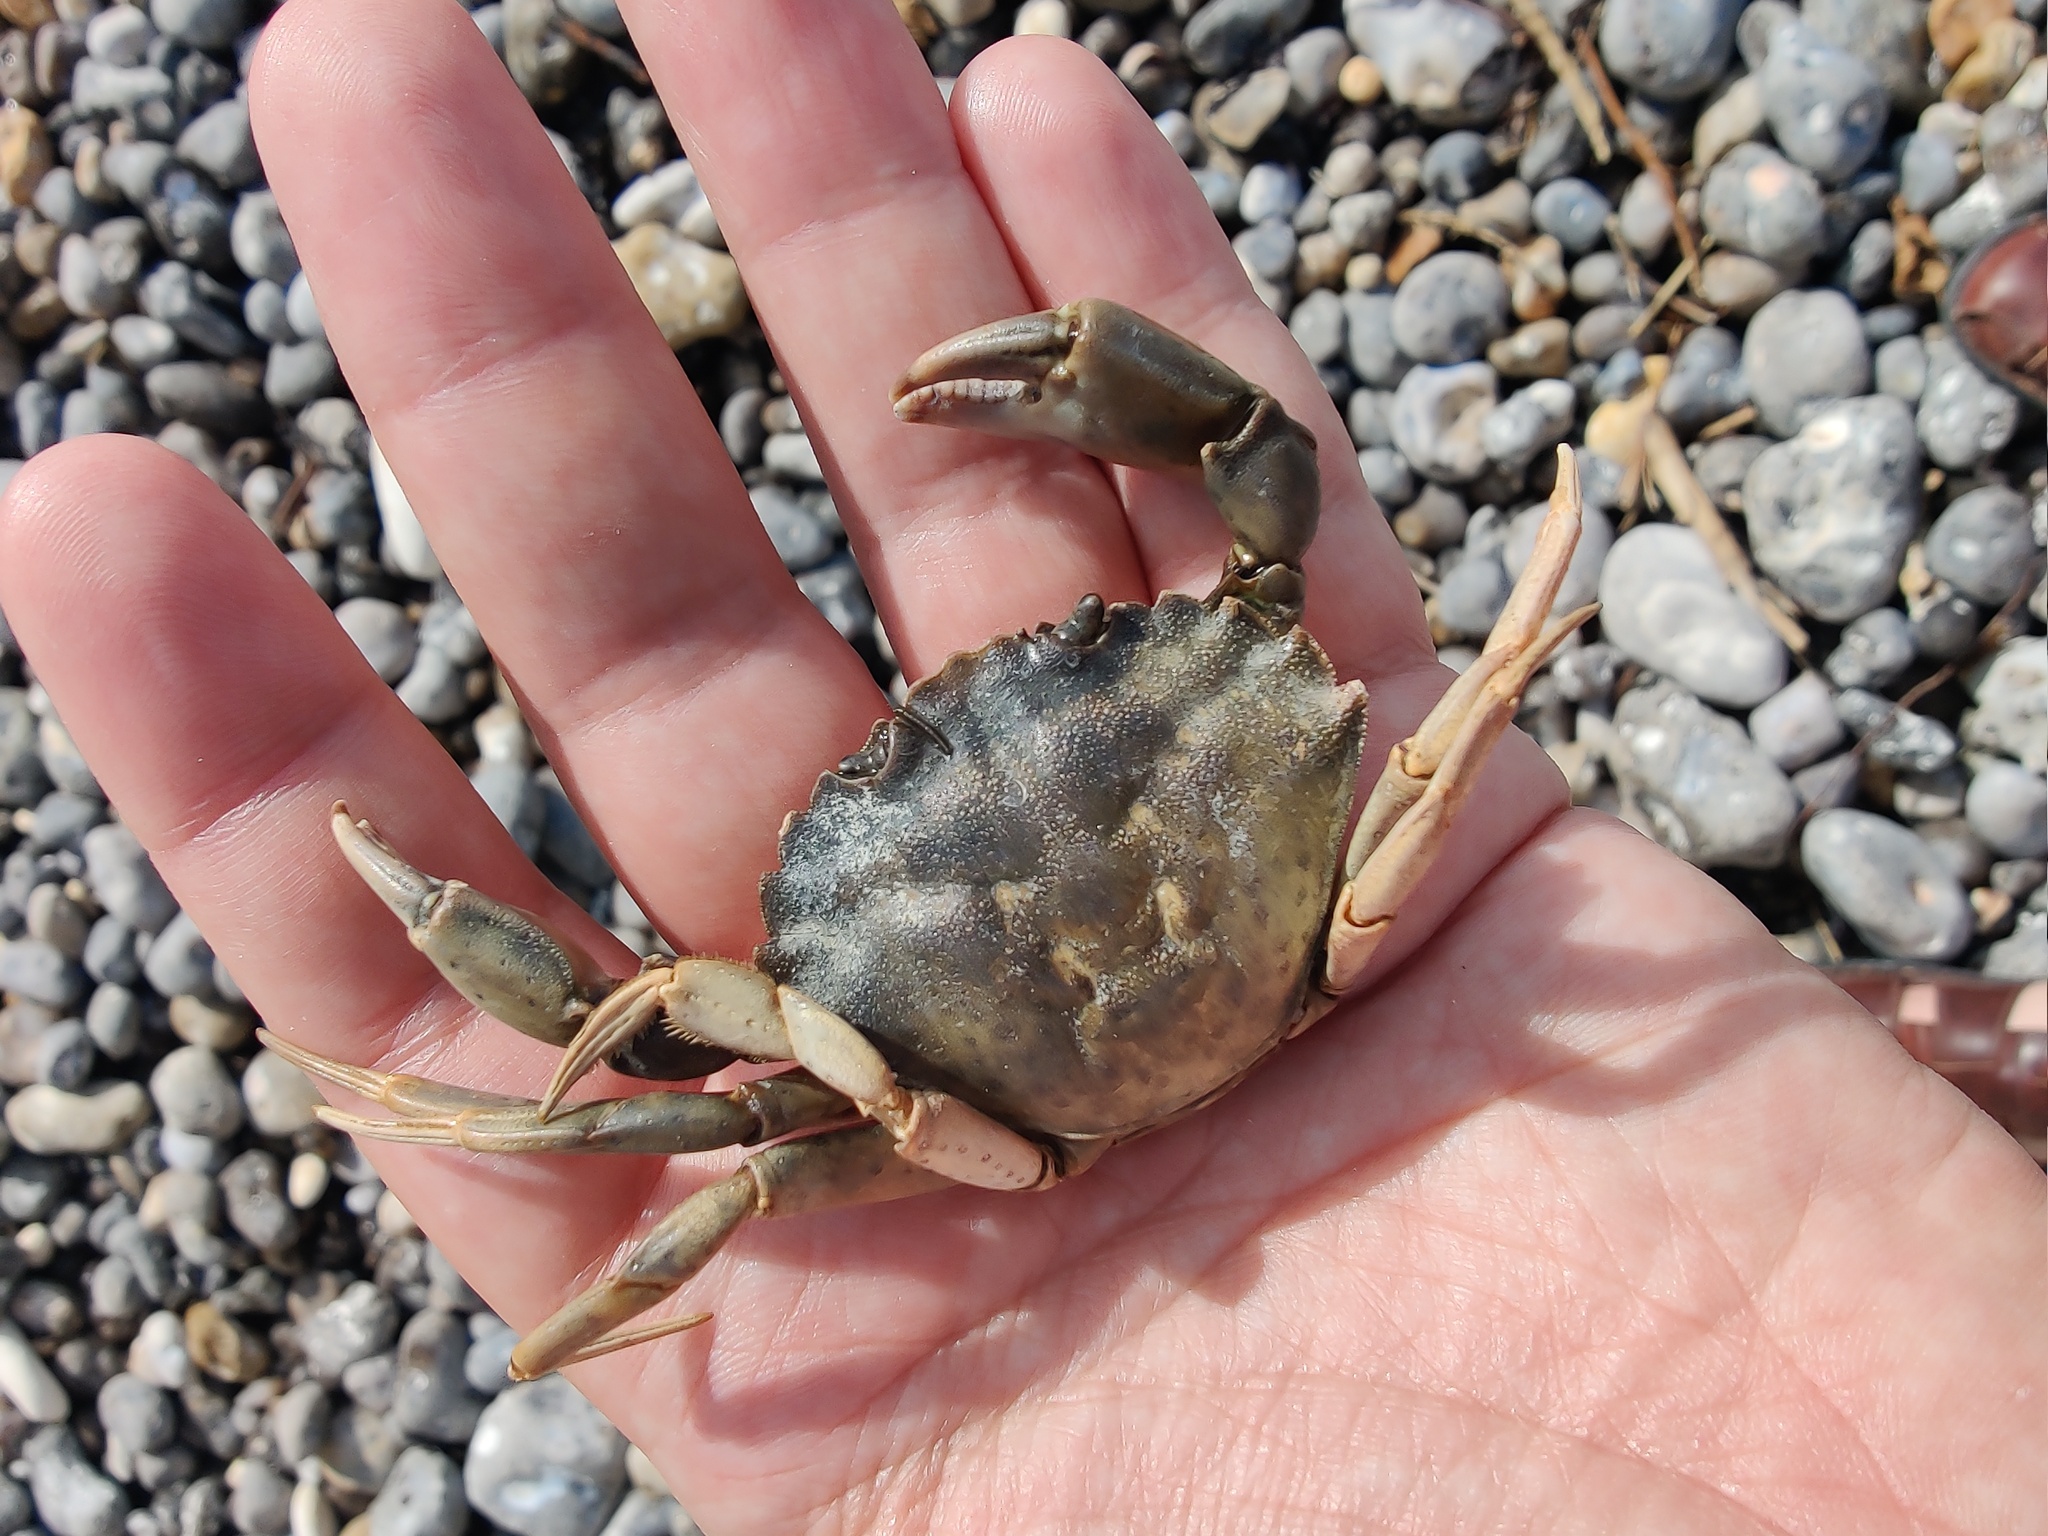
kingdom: Animalia
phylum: Arthropoda
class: Malacostraca
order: Decapoda
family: Carcinidae
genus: Carcinus
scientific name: Carcinus maenas
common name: European green crab
